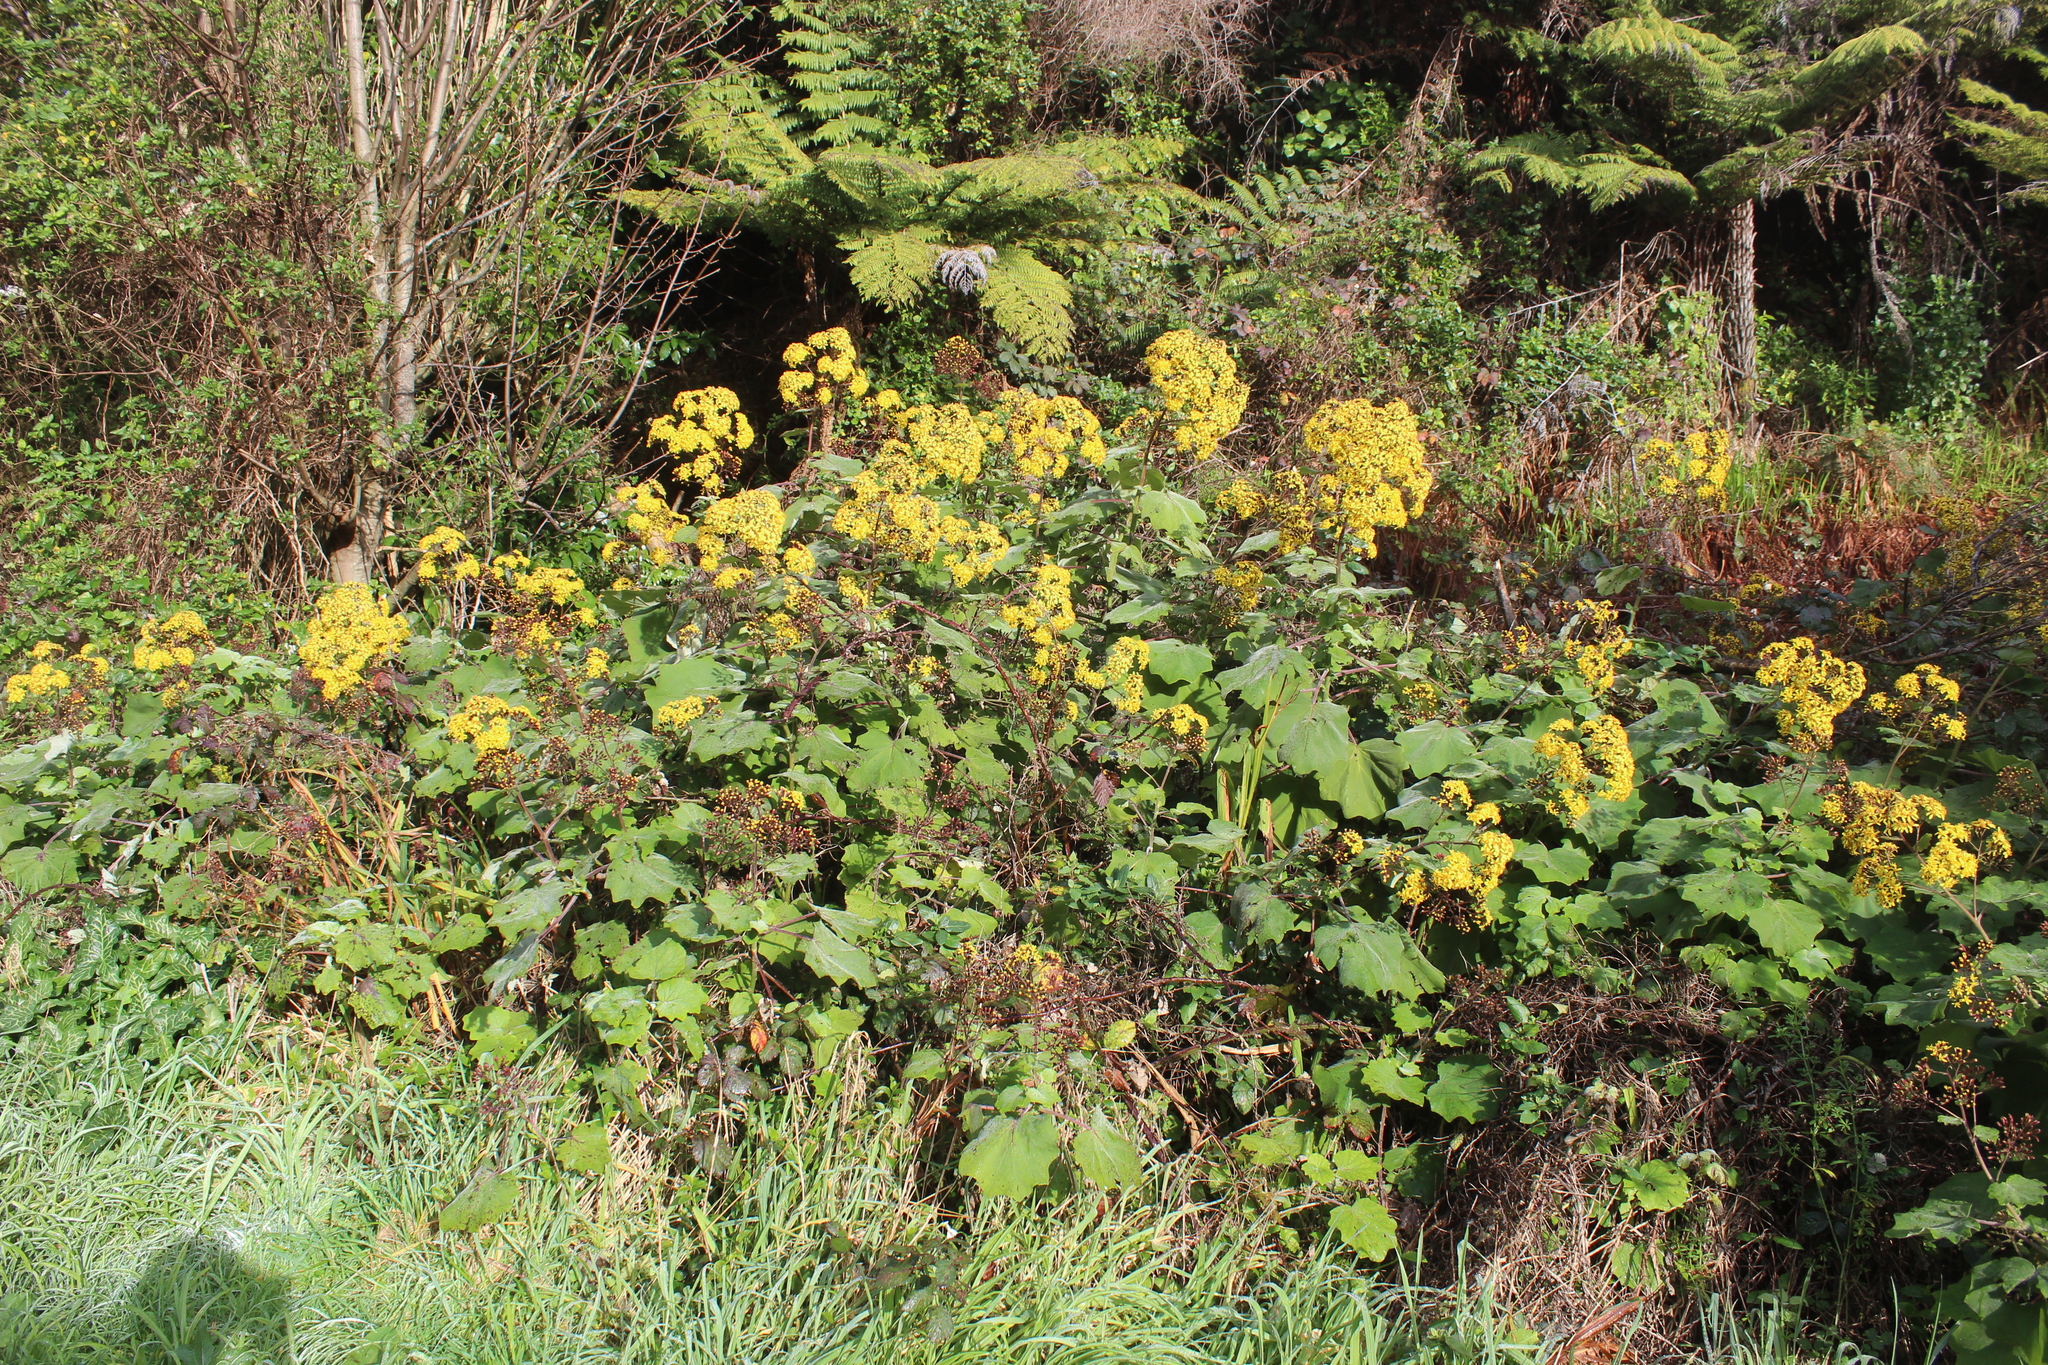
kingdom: Plantae
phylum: Tracheophyta
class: Magnoliopsida
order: Asterales
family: Asteraceae
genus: Roldana
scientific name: Roldana petasitis
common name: California-geranium
